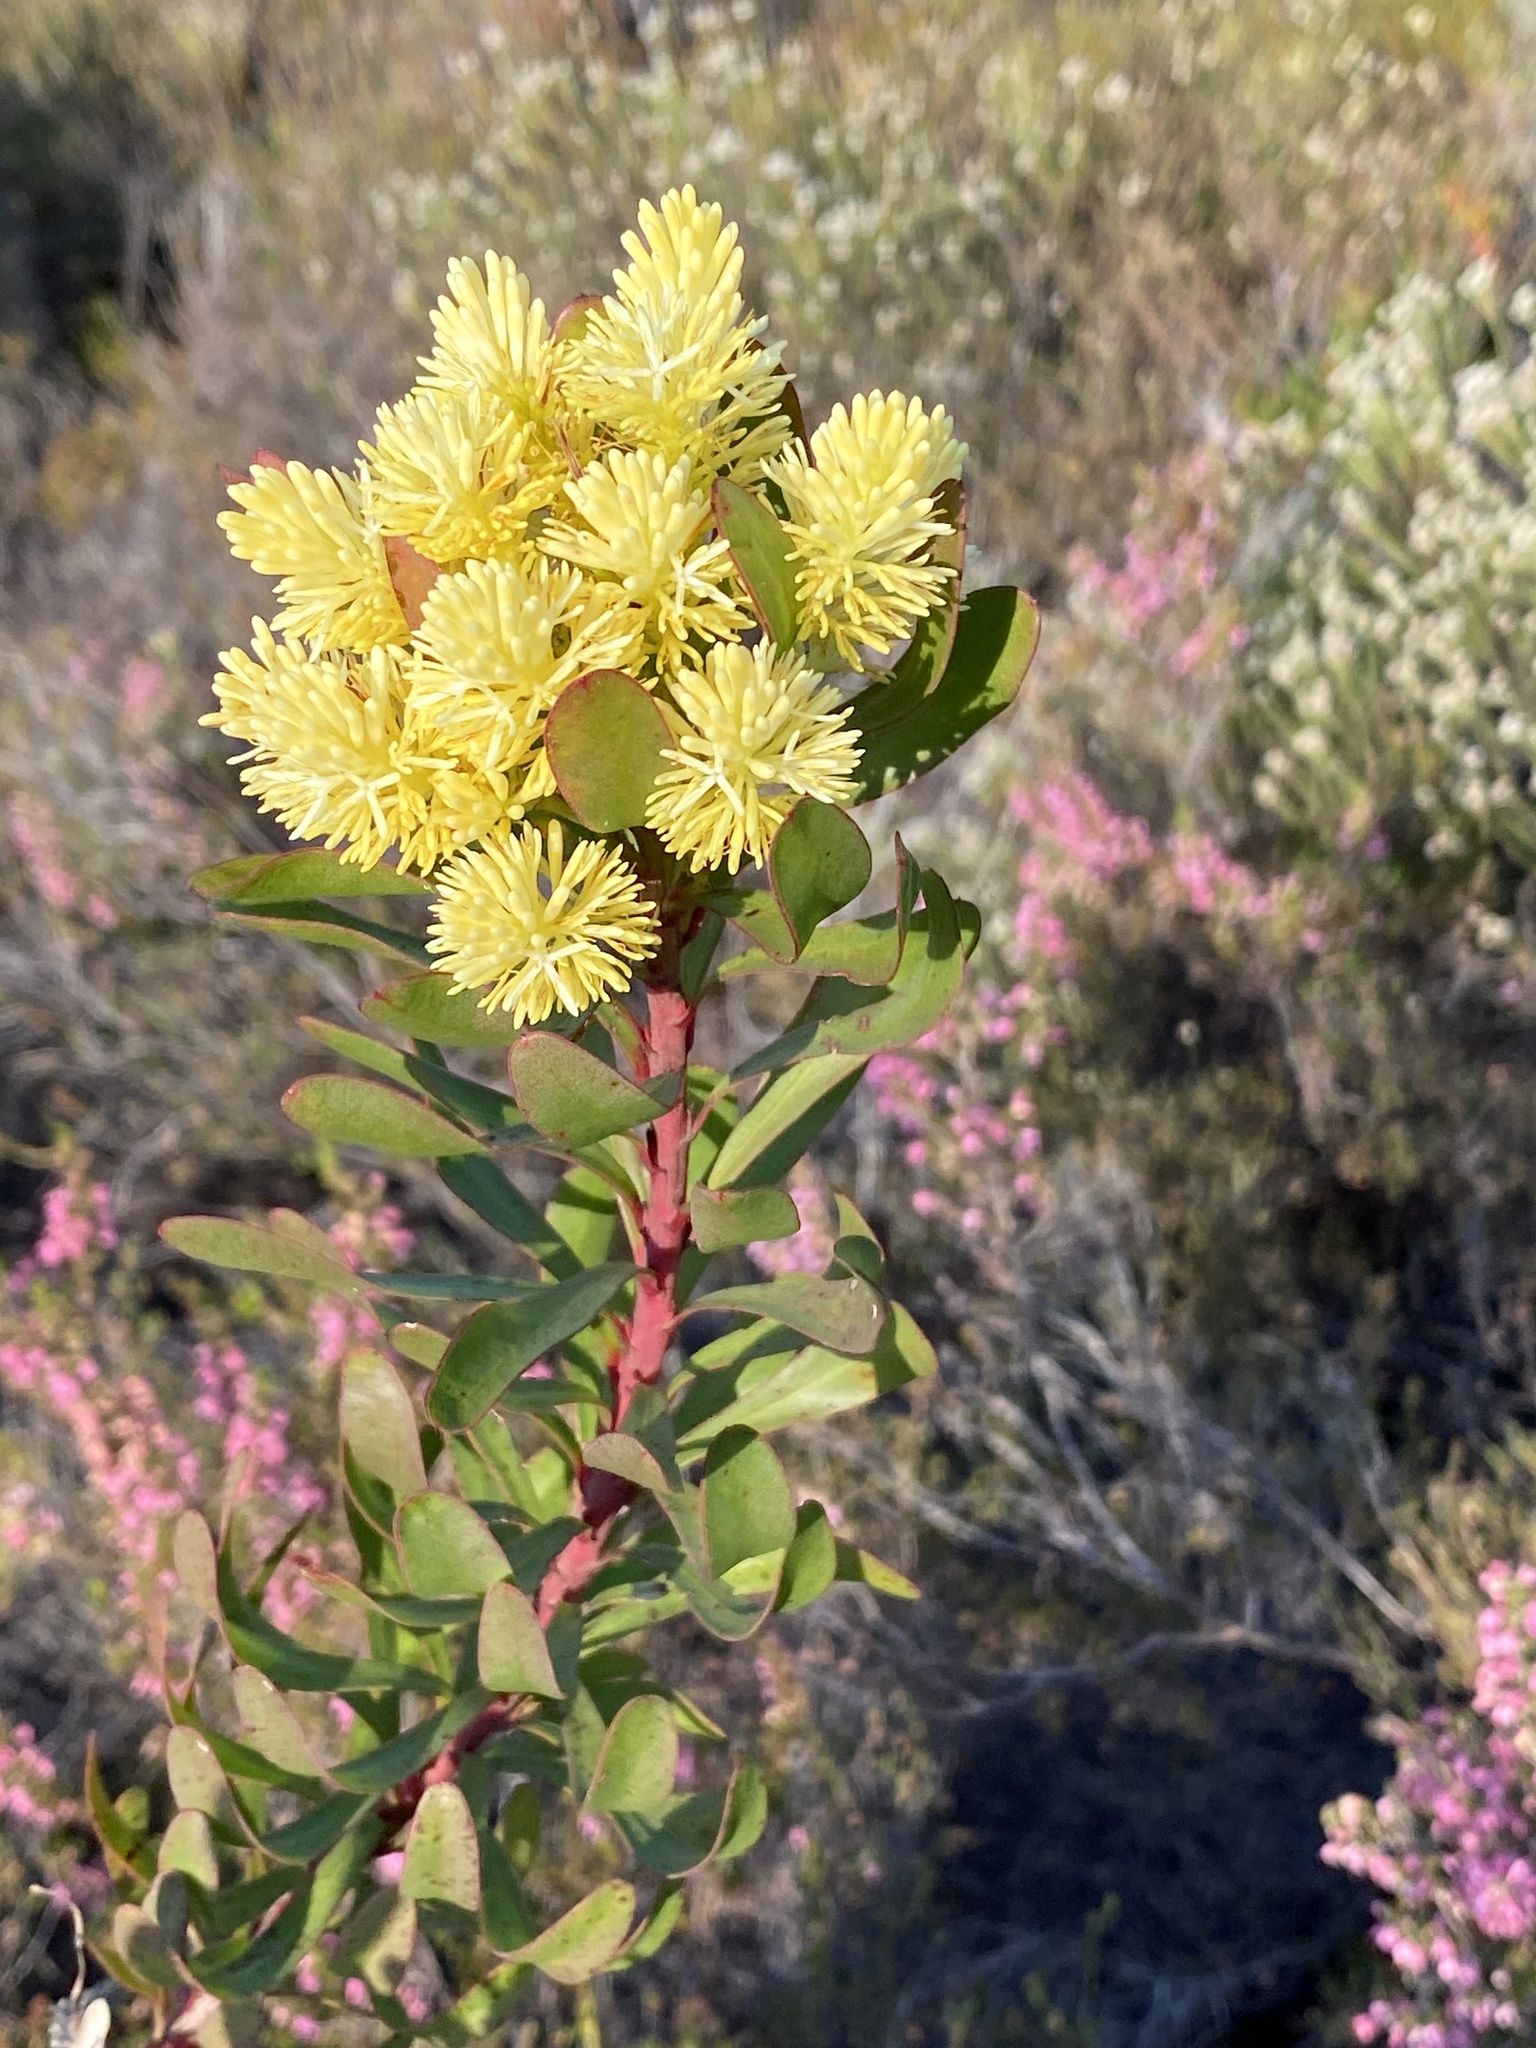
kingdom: Plantae
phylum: Tracheophyta
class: Magnoliopsida
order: Proteales
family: Proteaceae
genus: Aulax
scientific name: Aulax umbellata
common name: Broad-leaf featherbush
